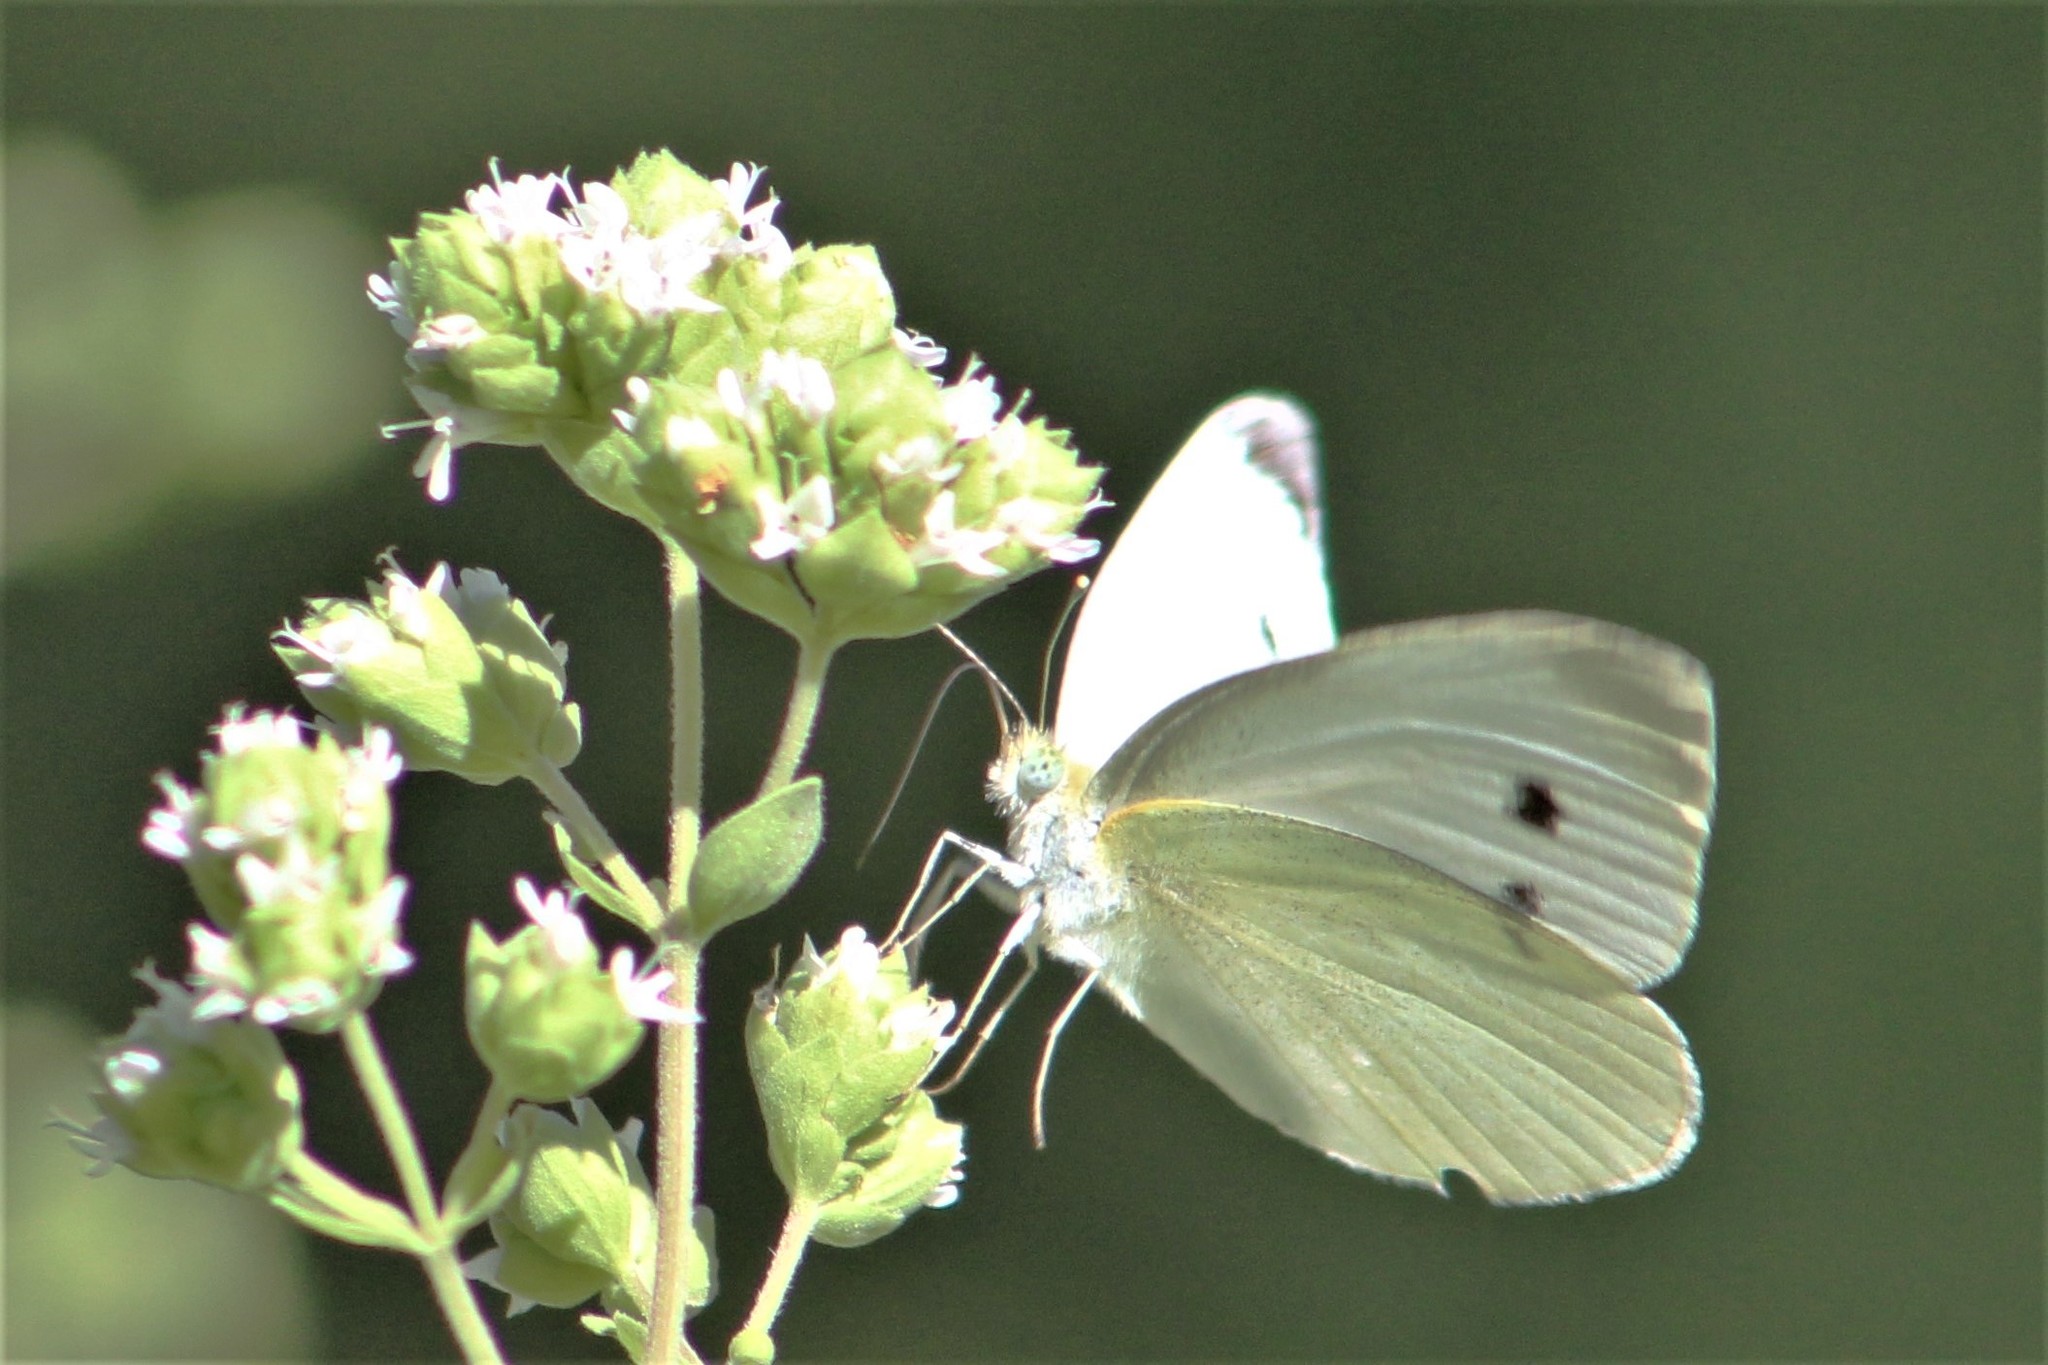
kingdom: Animalia
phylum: Arthropoda
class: Insecta
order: Lepidoptera
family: Pieridae
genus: Pieris
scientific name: Pieris rapae
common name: Small white
